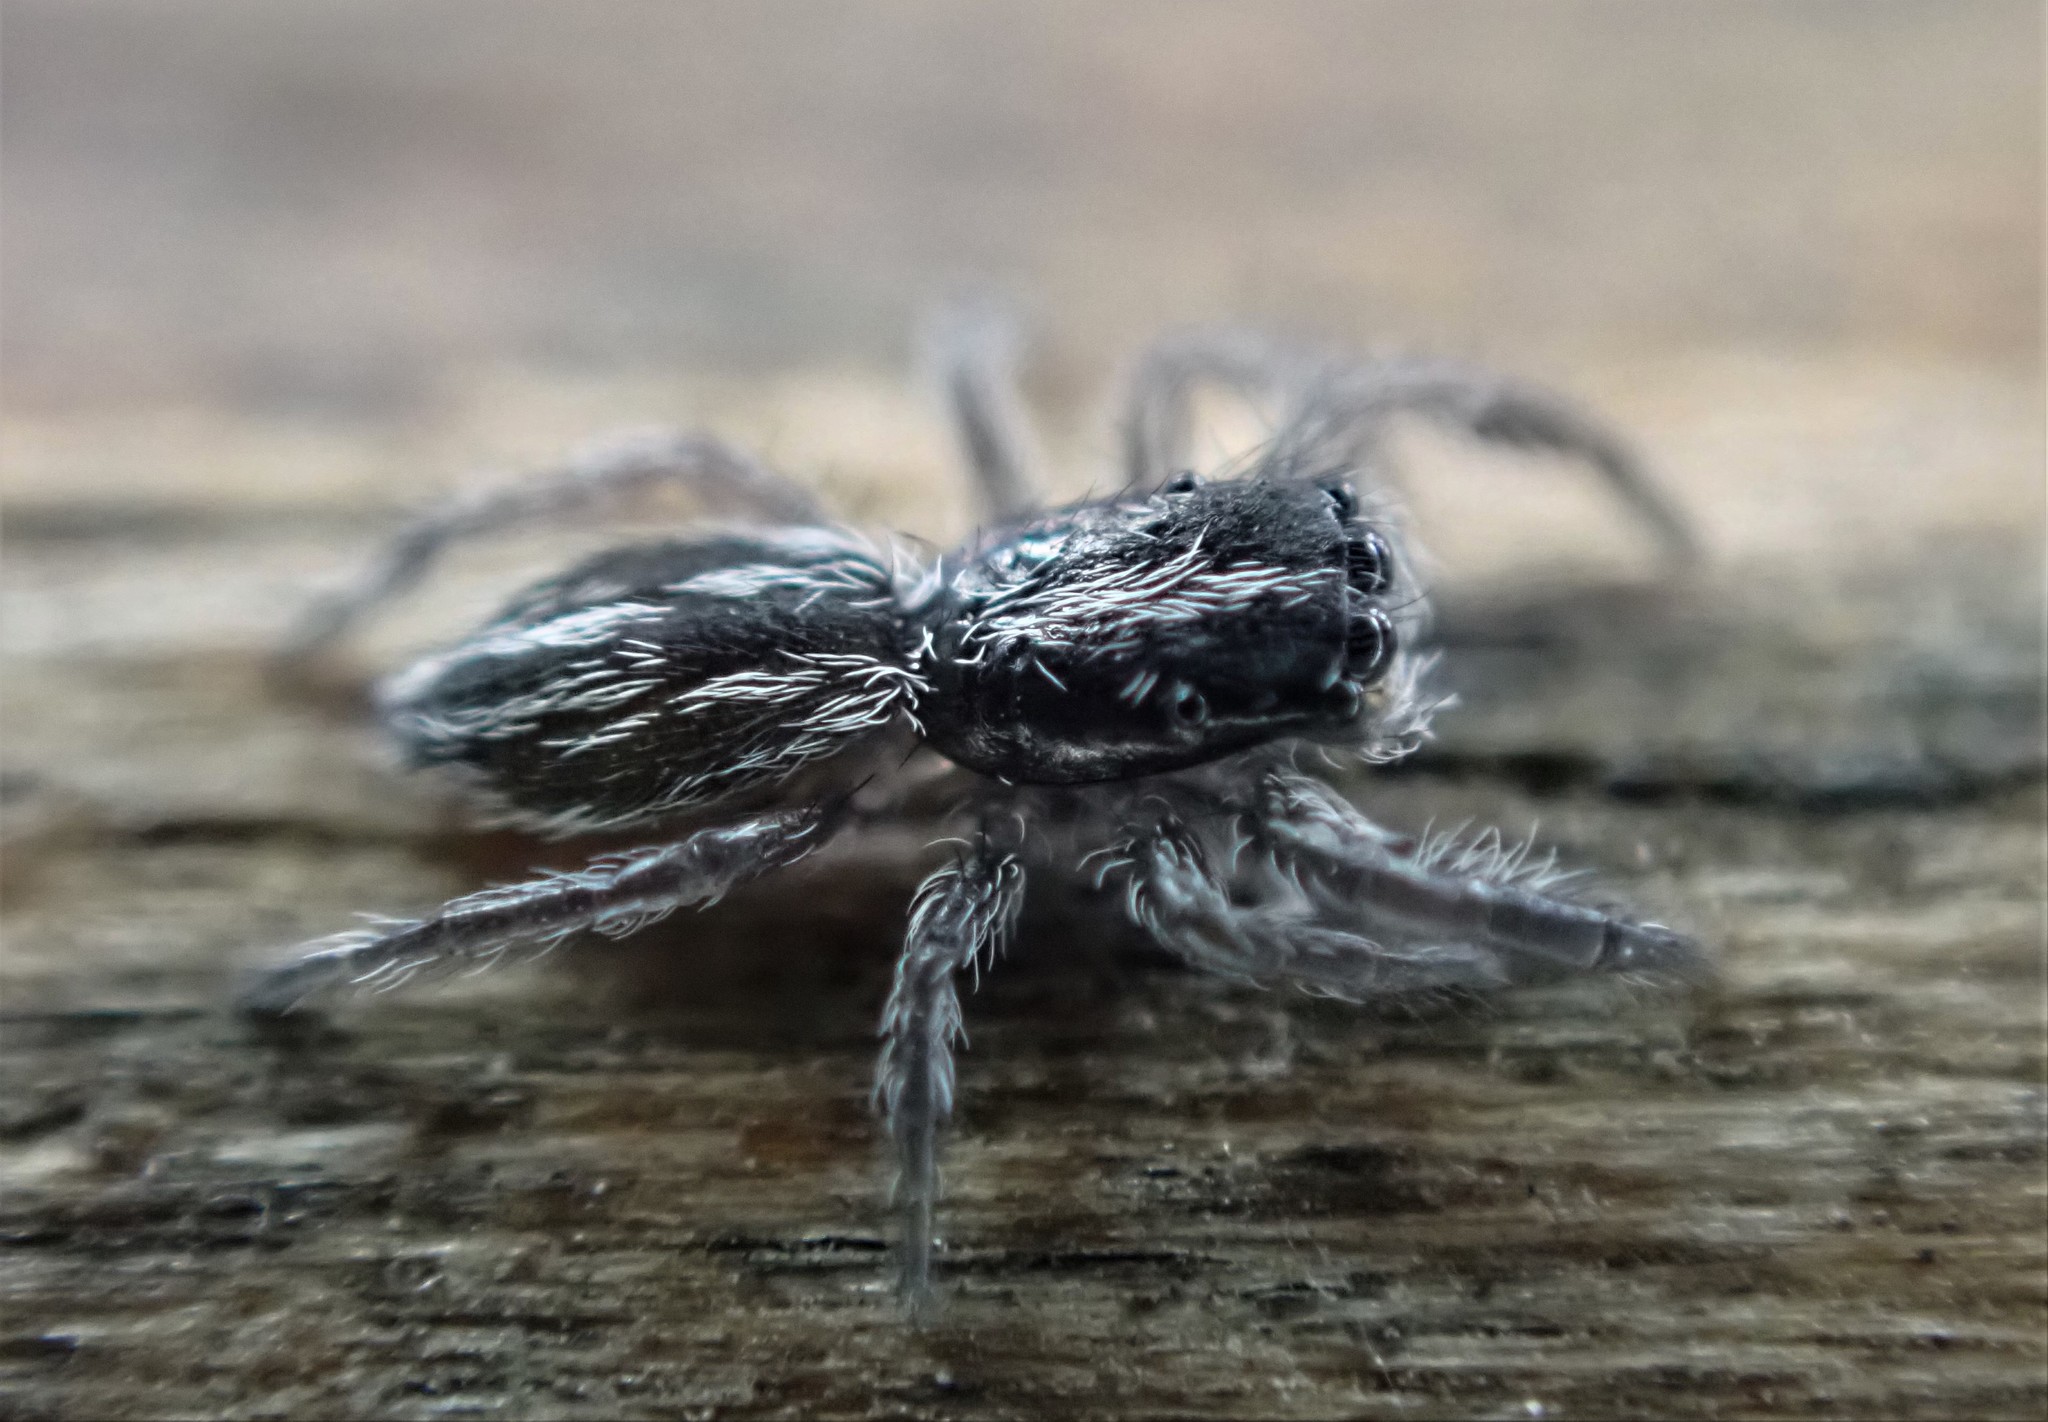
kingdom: Animalia
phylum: Arthropoda
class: Arachnida
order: Araneae
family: Salticidae
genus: Holoplatys
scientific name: Holoplatys apressus
